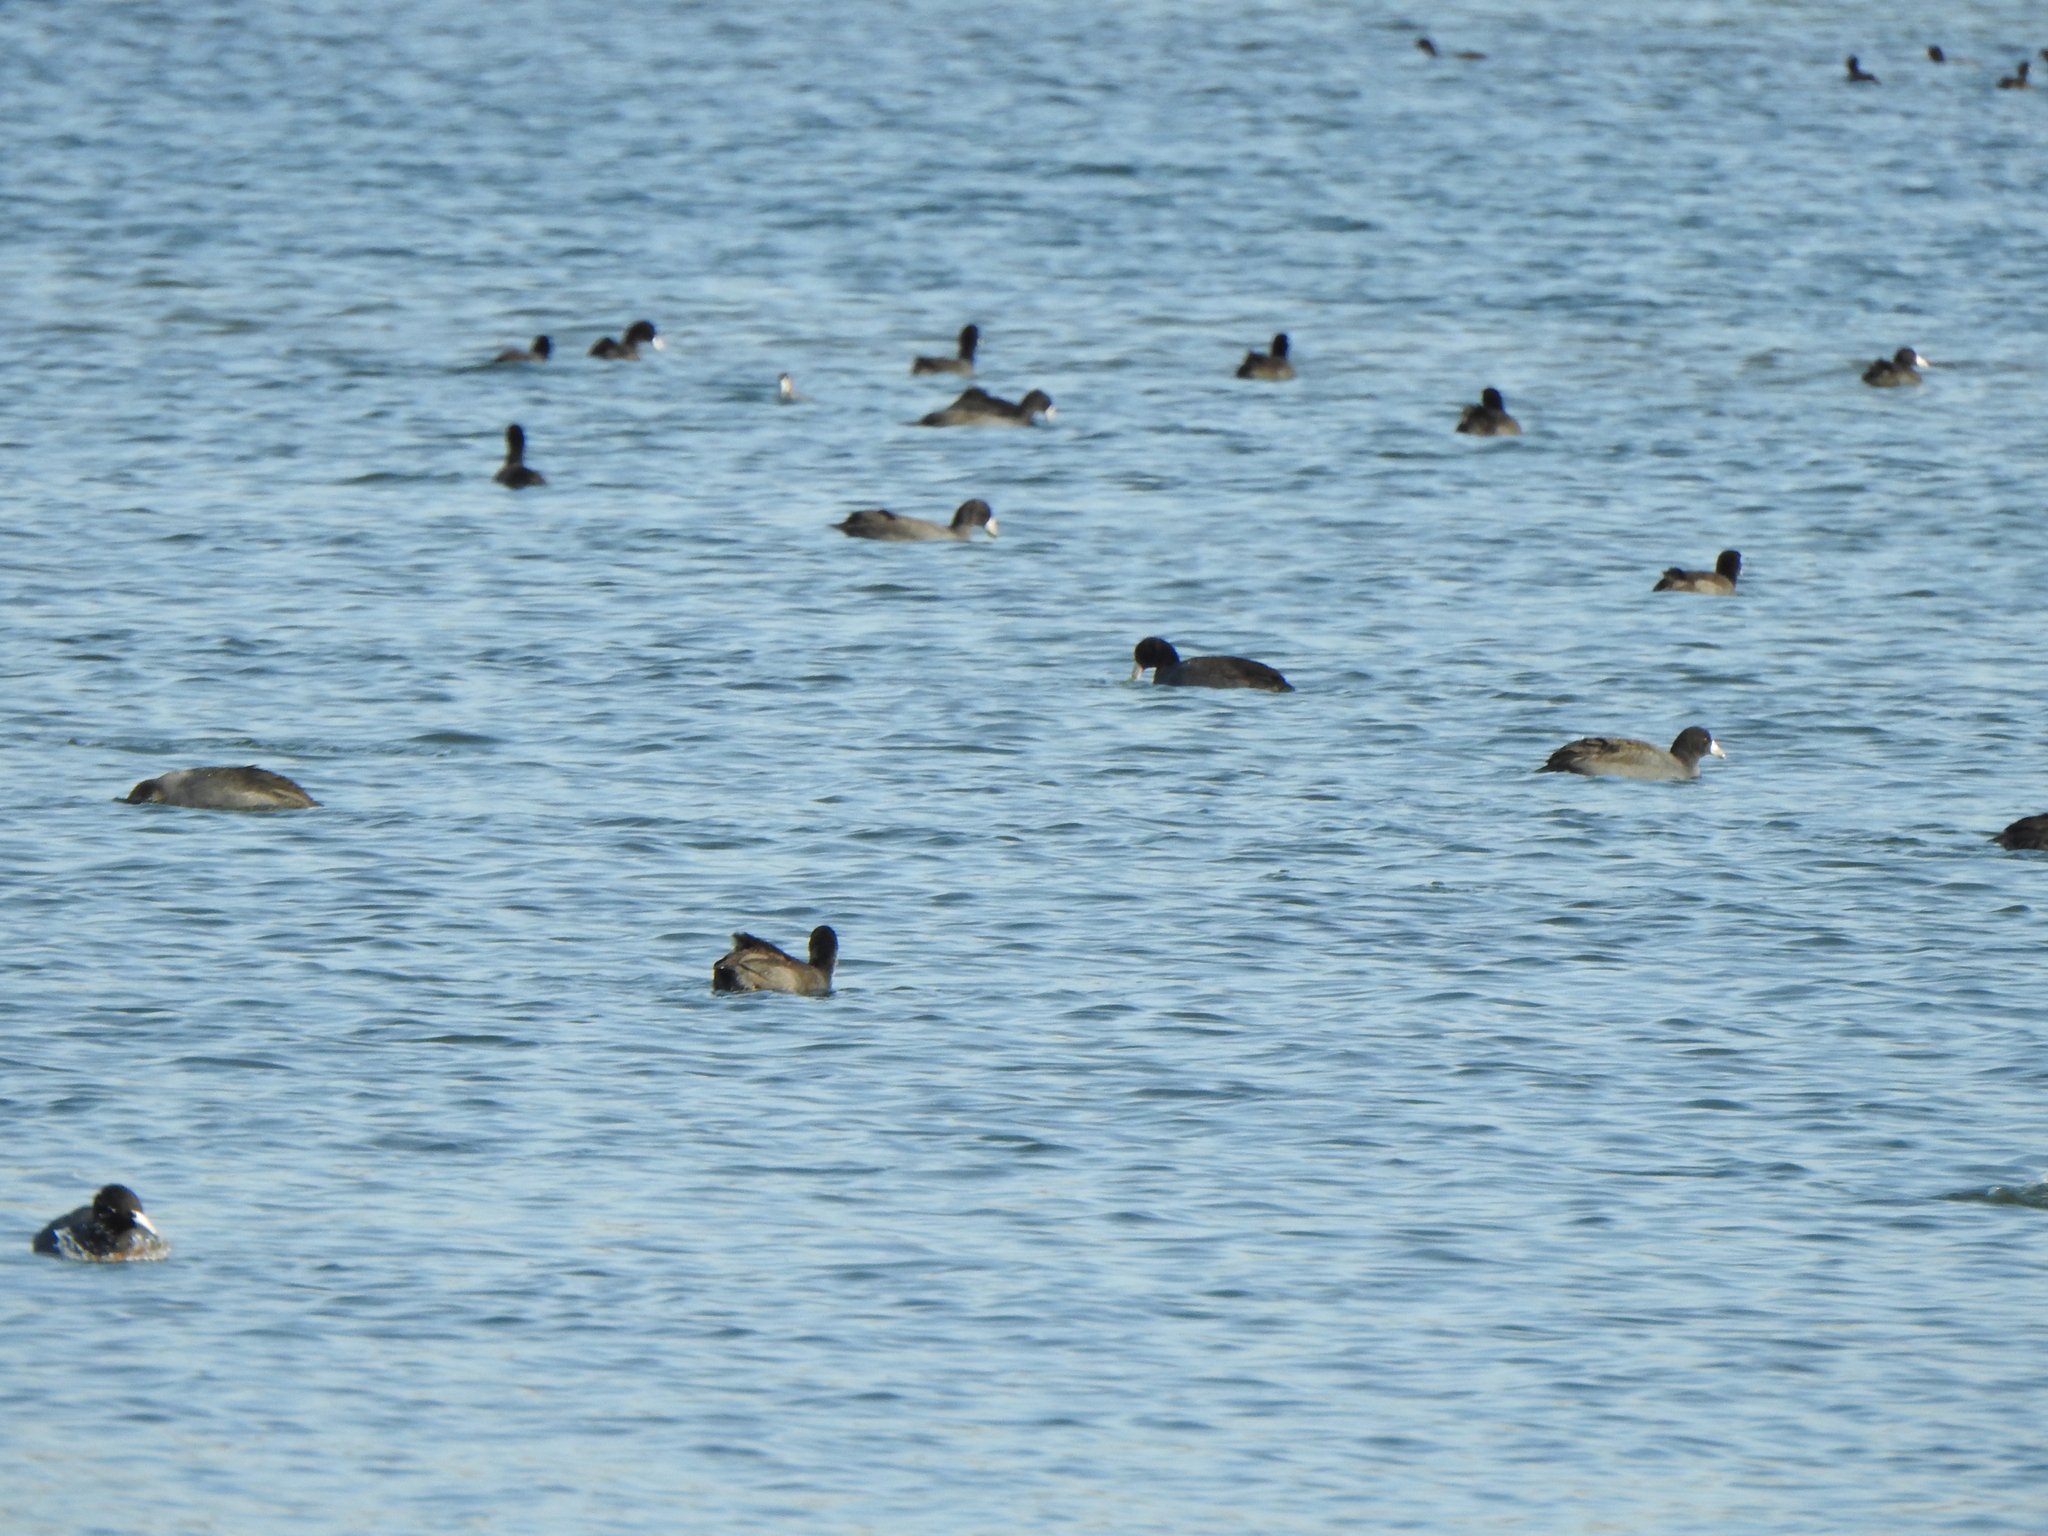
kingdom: Animalia
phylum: Chordata
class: Aves
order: Gruiformes
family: Rallidae
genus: Fulica
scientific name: Fulica americana
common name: American coot
